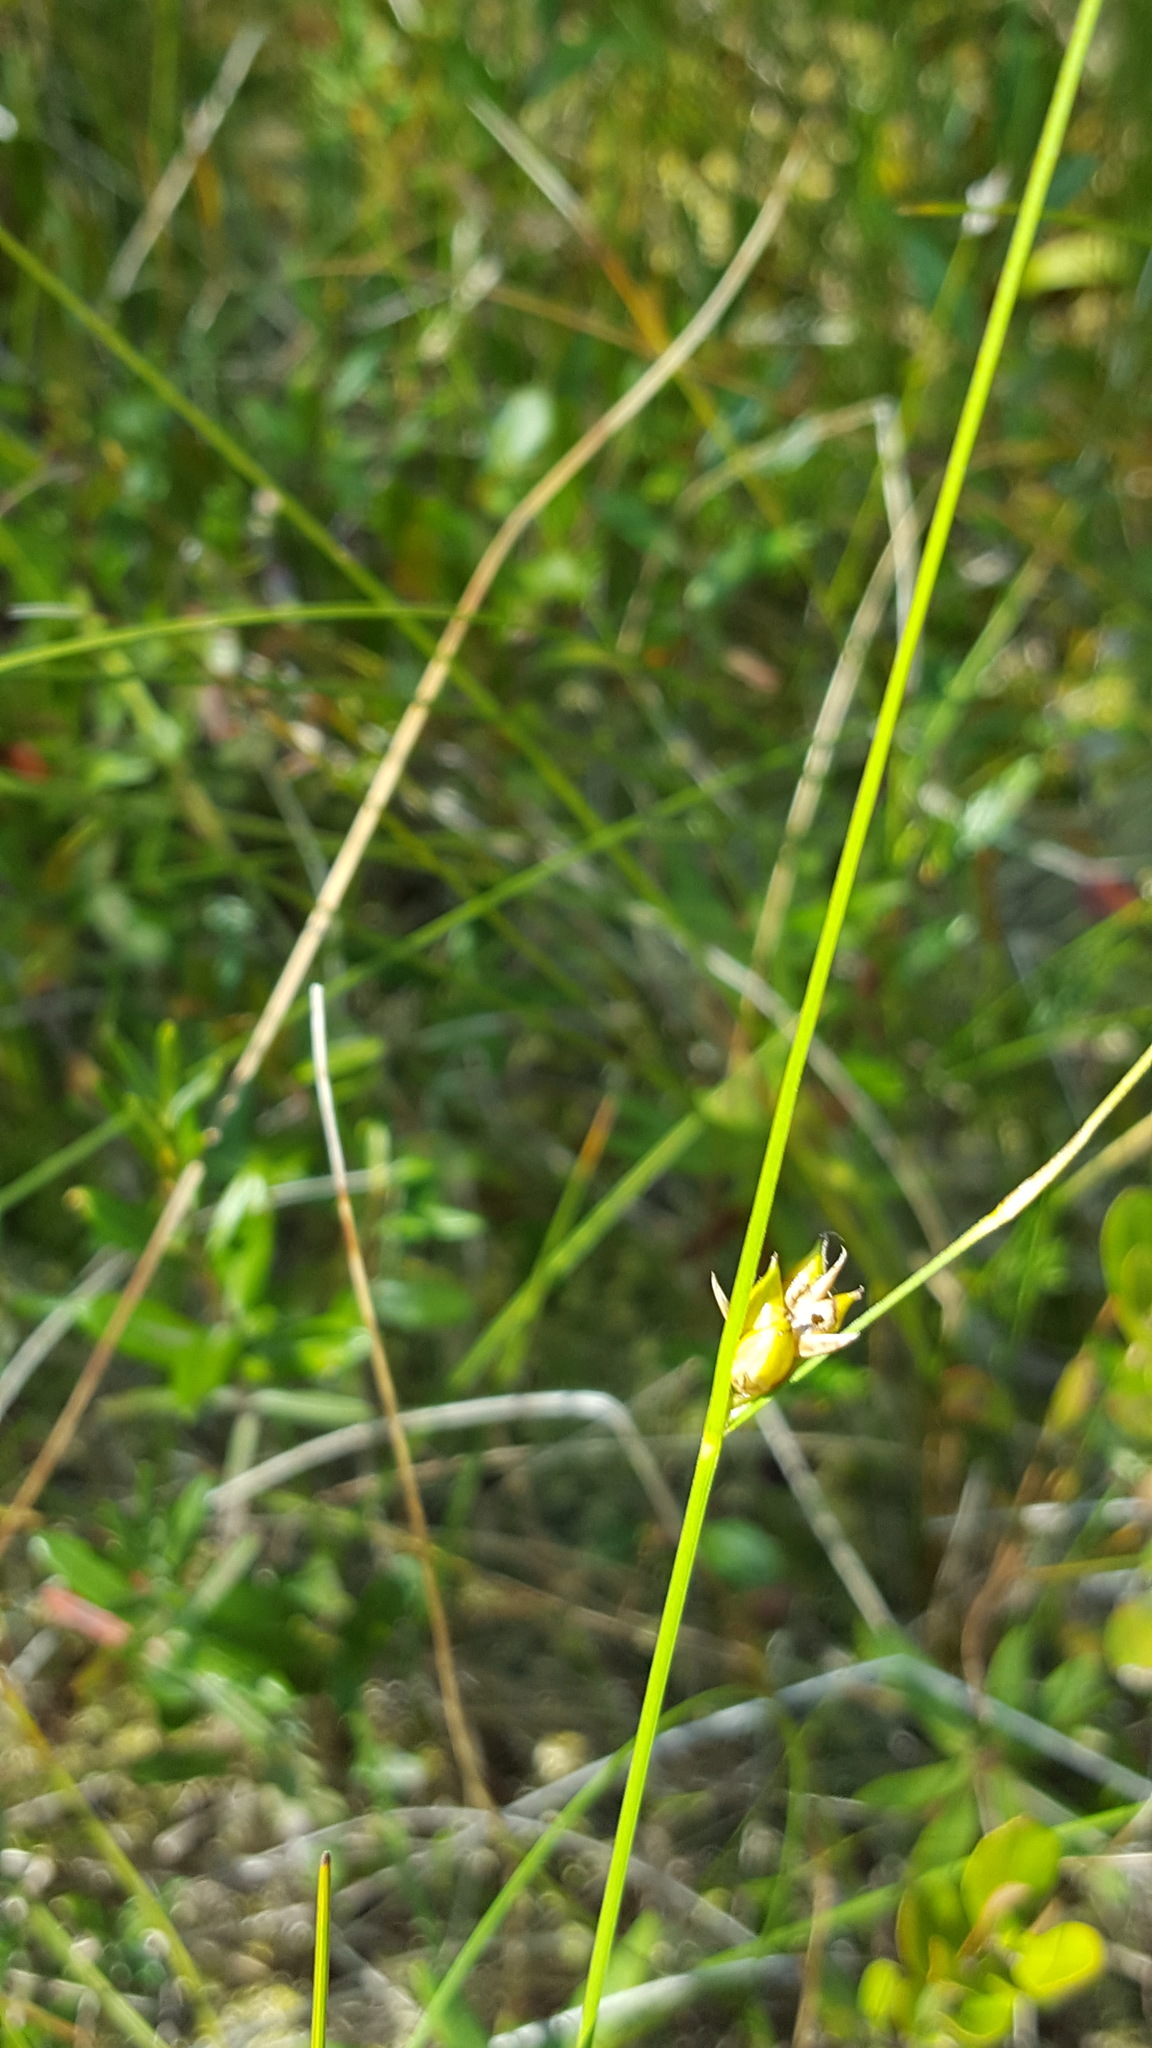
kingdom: Plantae
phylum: Tracheophyta
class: Liliopsida
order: Poales
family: Cyperaceae
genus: Carex
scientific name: Carex oligosperma
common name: Few-seed sedge
